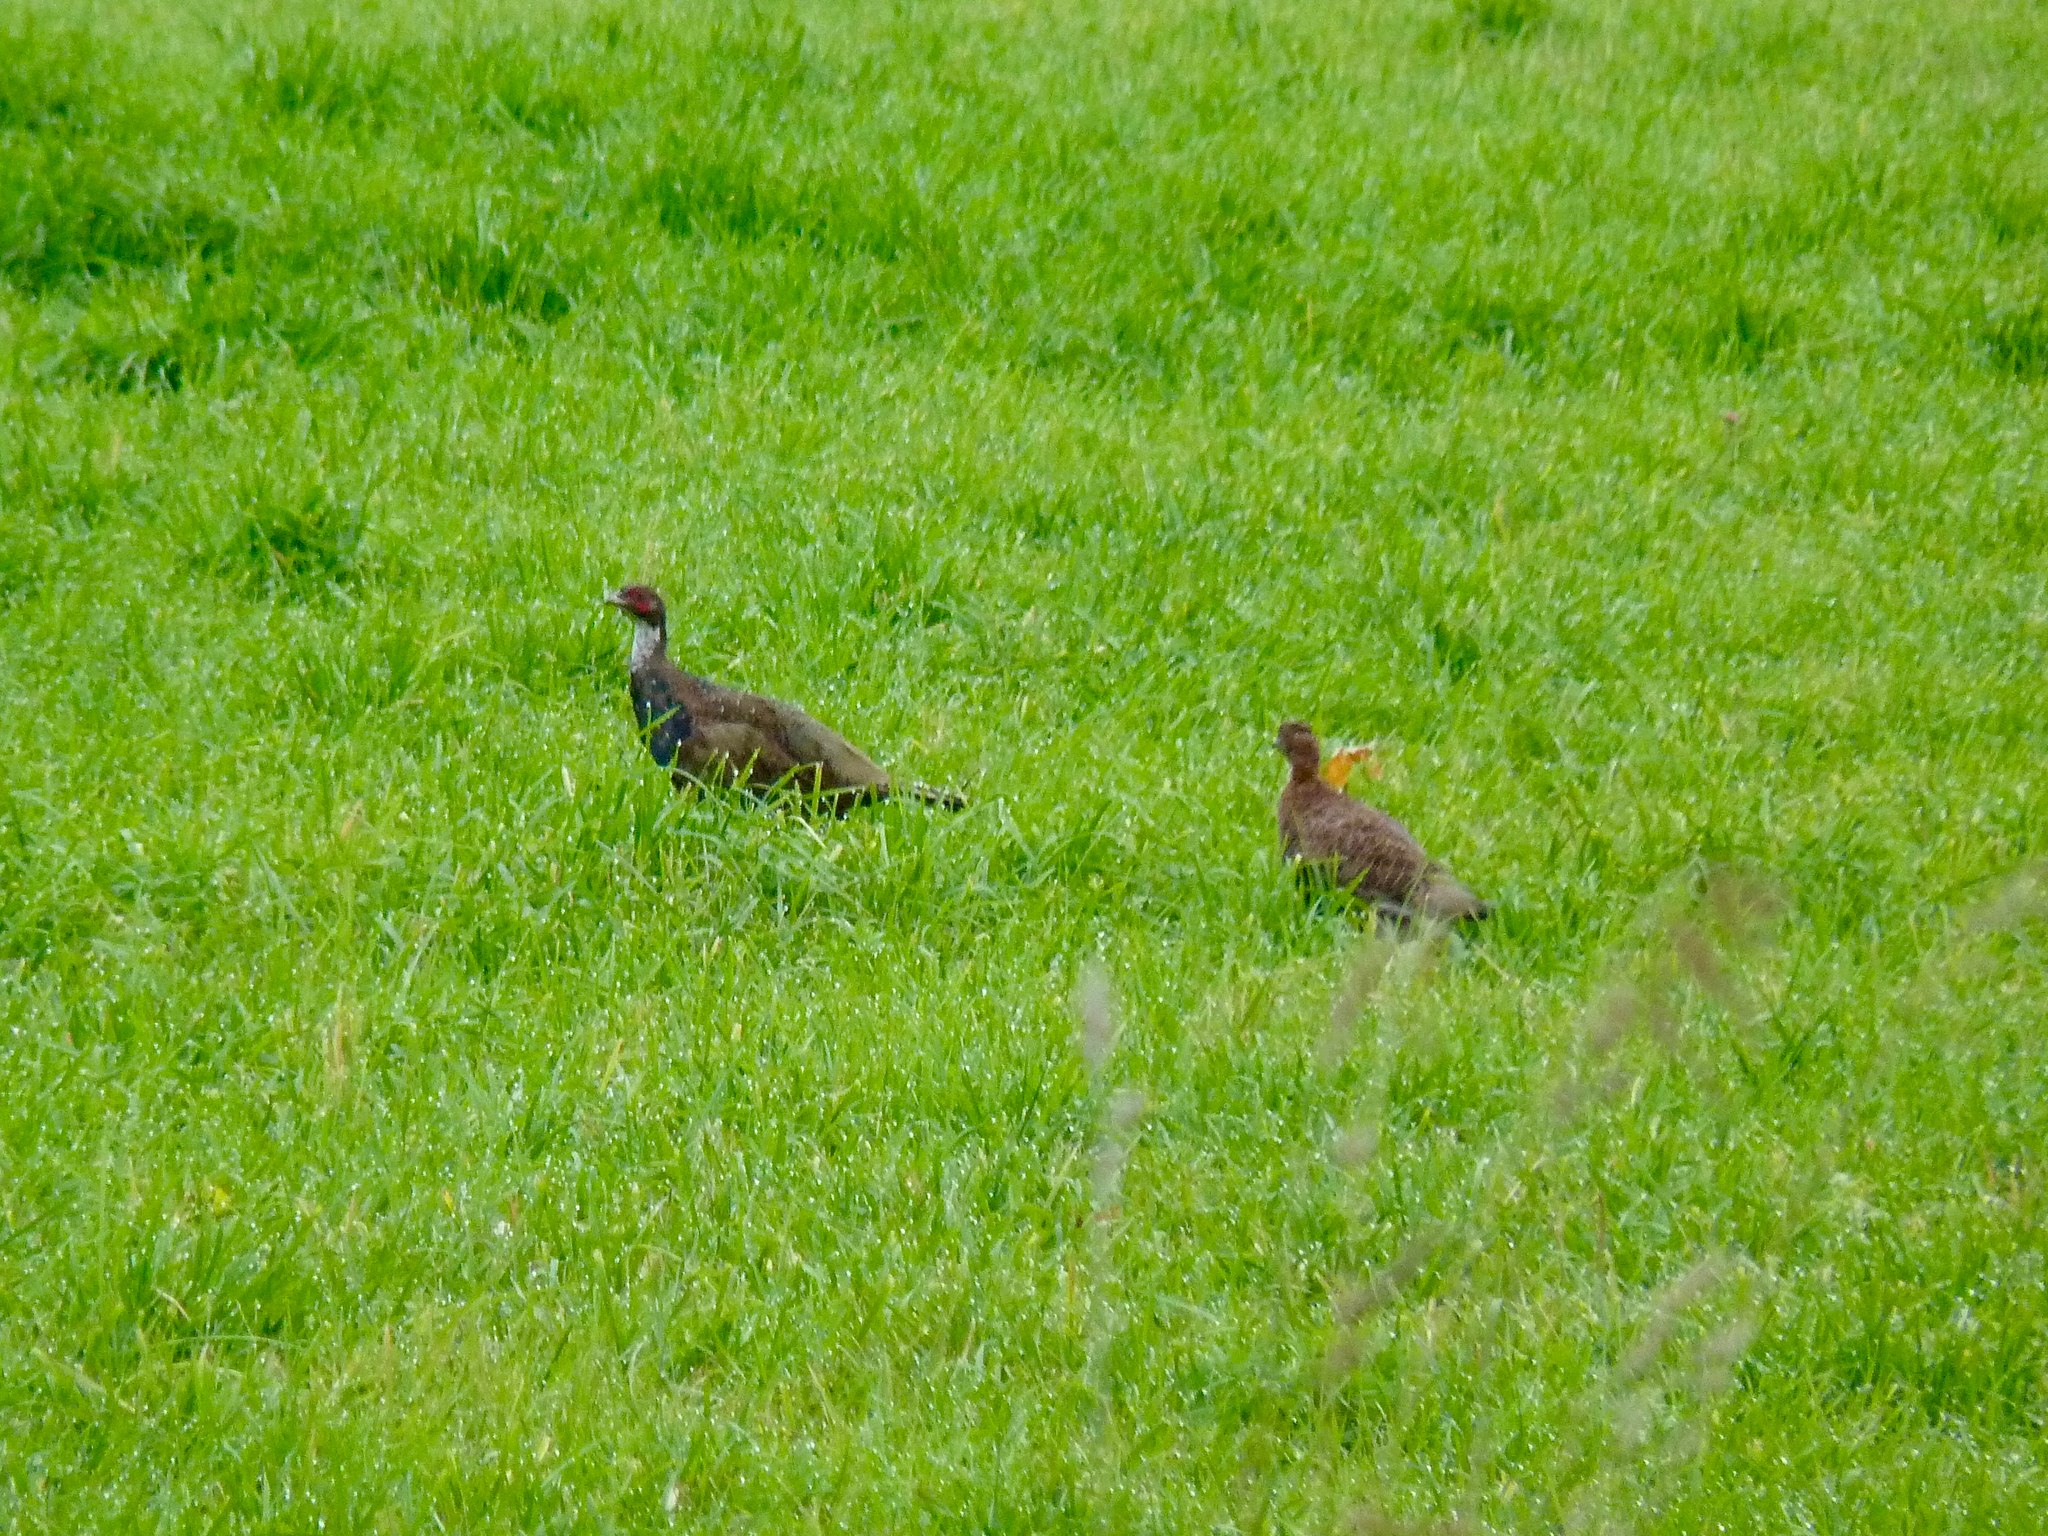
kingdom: Animalia
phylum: Chordata
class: Aves
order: Galliformes
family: Phasianidae
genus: Phasianus
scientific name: Phasianus colchicus
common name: Common pheasant
